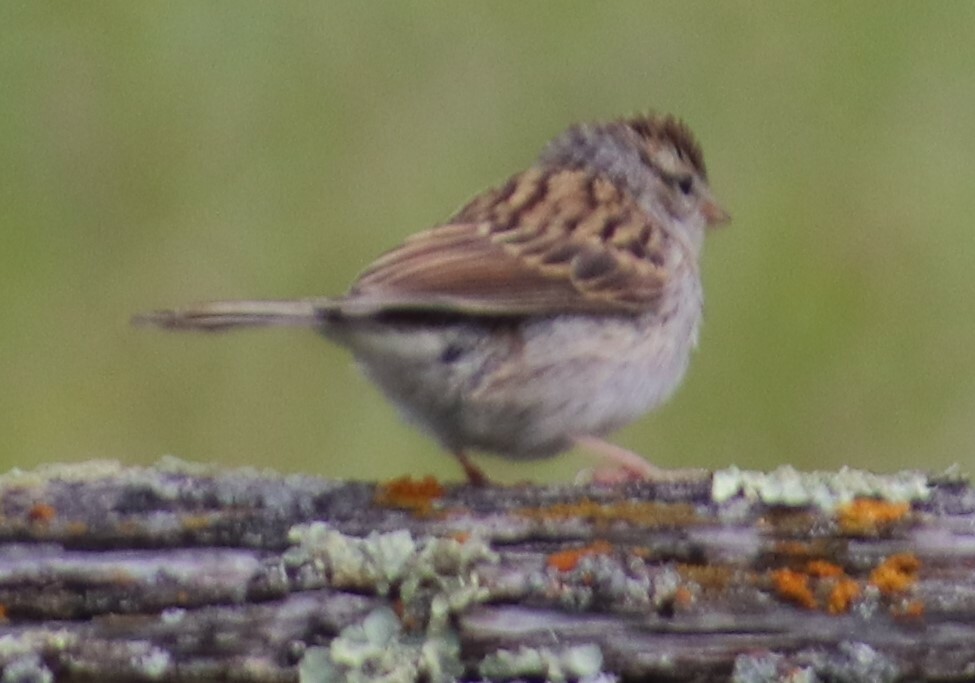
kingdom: Animalia
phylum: Chordata
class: Aves
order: Passeriformes
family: Passerellidae
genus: Spizella
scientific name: Spizella passerina
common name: Chipping sparrow
